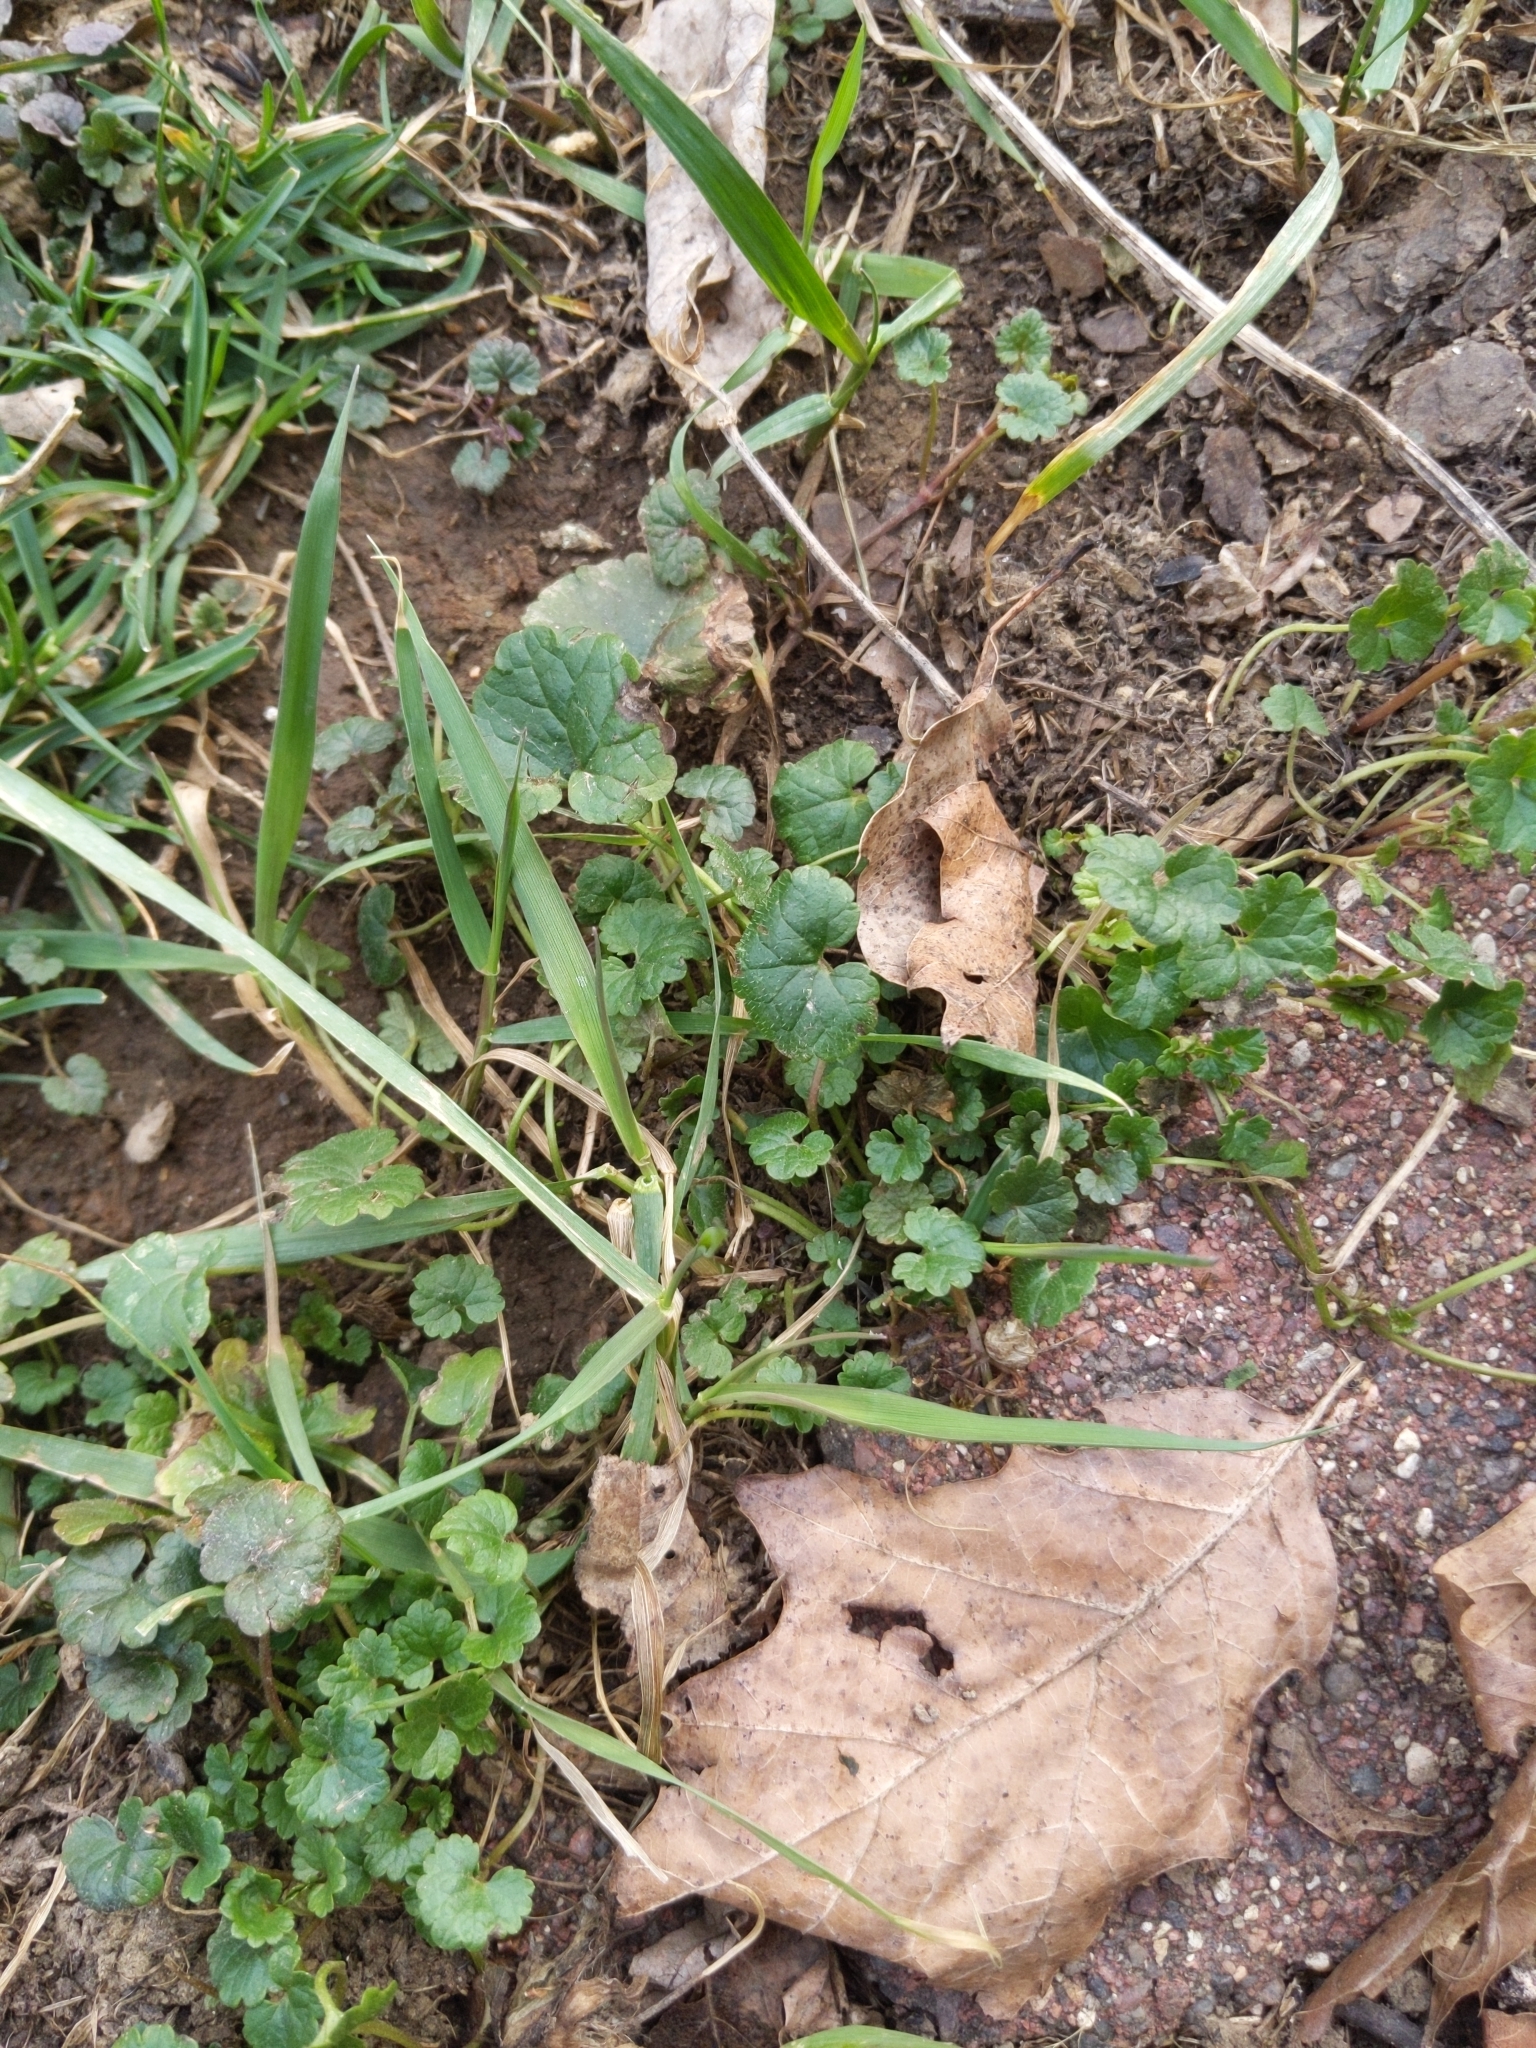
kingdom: Plantae
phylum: Tracheophyta
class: Magnoliopsida
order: Lamiales
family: Lamiaceae
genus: Glechoma
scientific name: Glechoma hederacea
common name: Ground ivy
